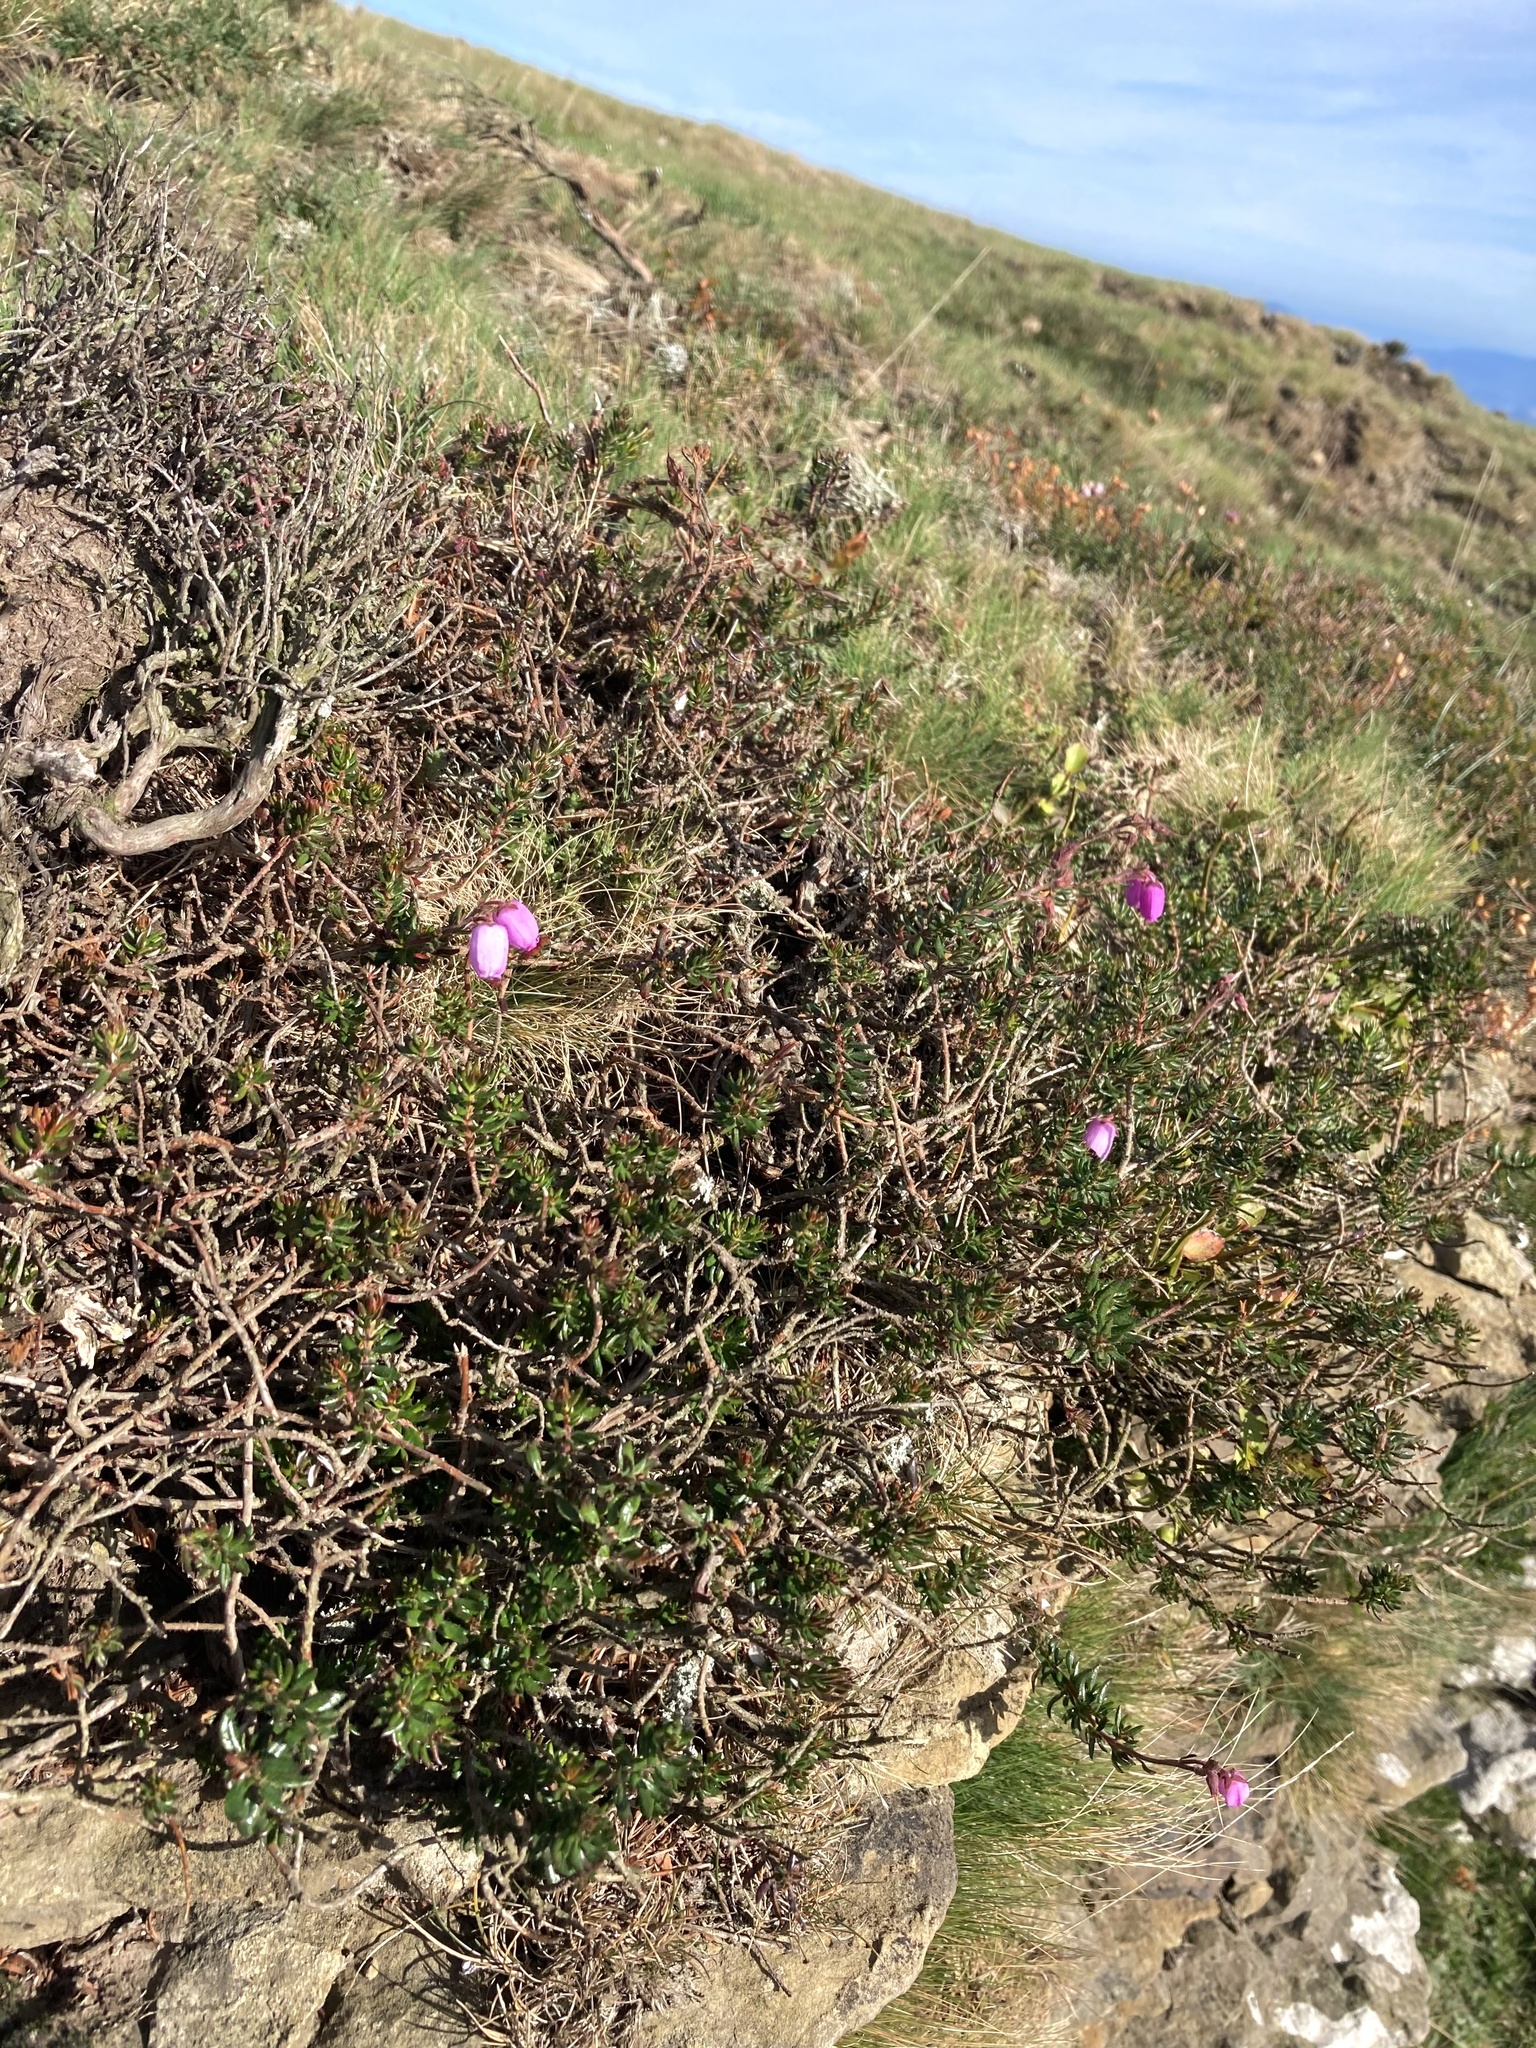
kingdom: Plantae
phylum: Tracheophyta
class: Magnoliopsida
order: Ericales
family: Ericaceae
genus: Daboecia
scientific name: Daboecia cantabrica
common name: St. dabeoc's-heath
